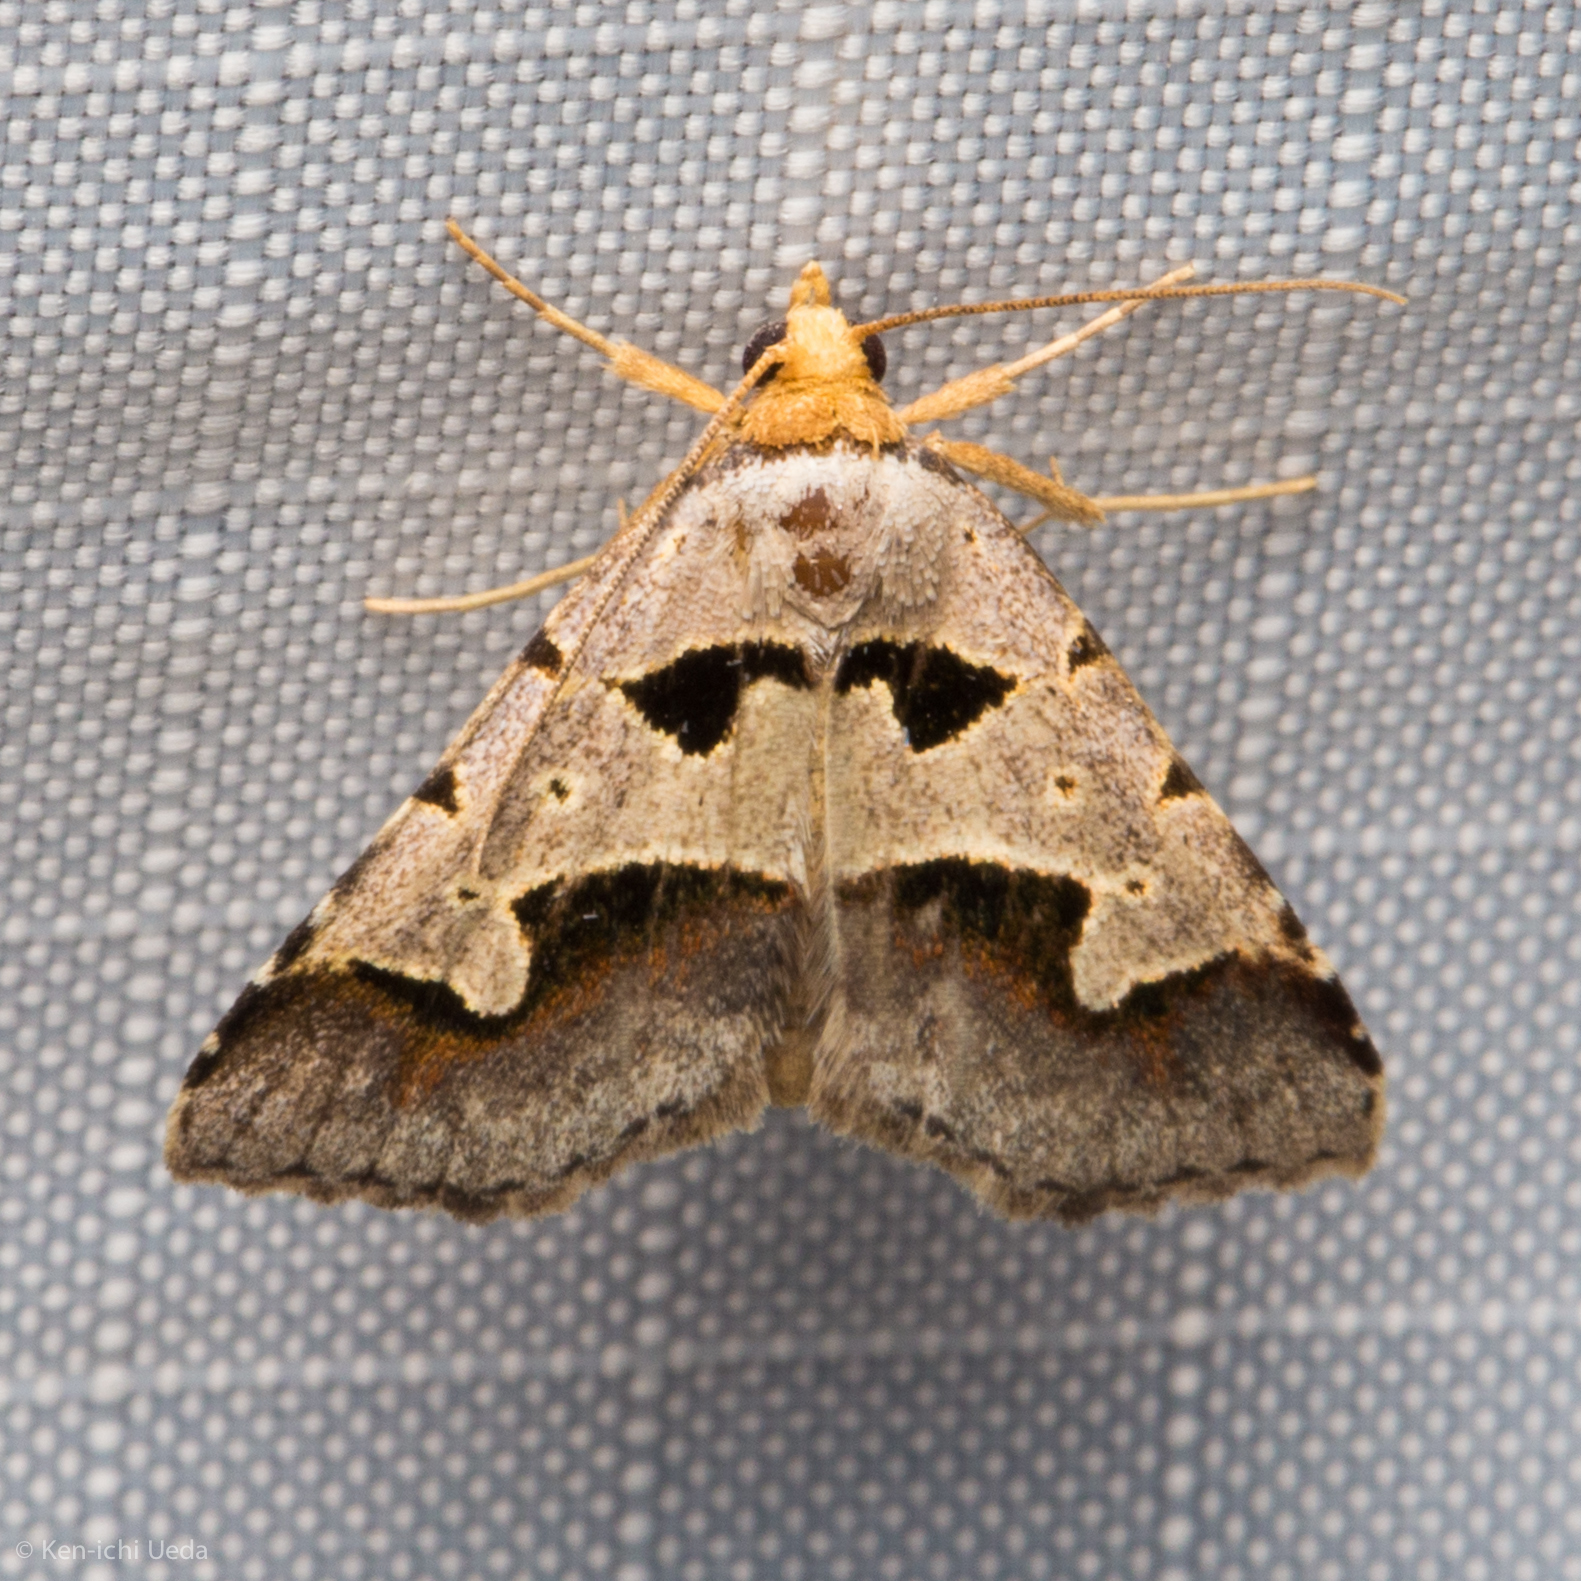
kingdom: Animalia
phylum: Arthropoda
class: Insecta
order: Lepidoptera
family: Erebidae
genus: Baniana
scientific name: Baniana minor
